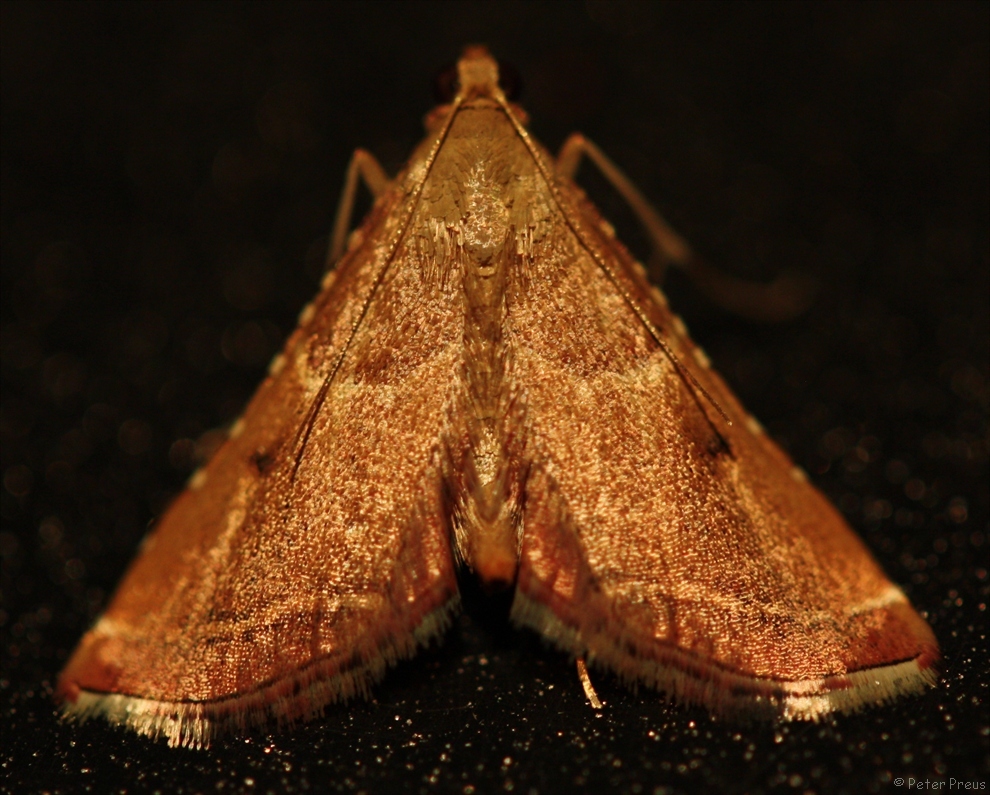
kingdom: Animalia
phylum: Arthropoda
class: Insecta
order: Lepidoptera
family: Pyralidae
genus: Endotricha
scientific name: Endotricha flammealis
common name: Rosy tabby
